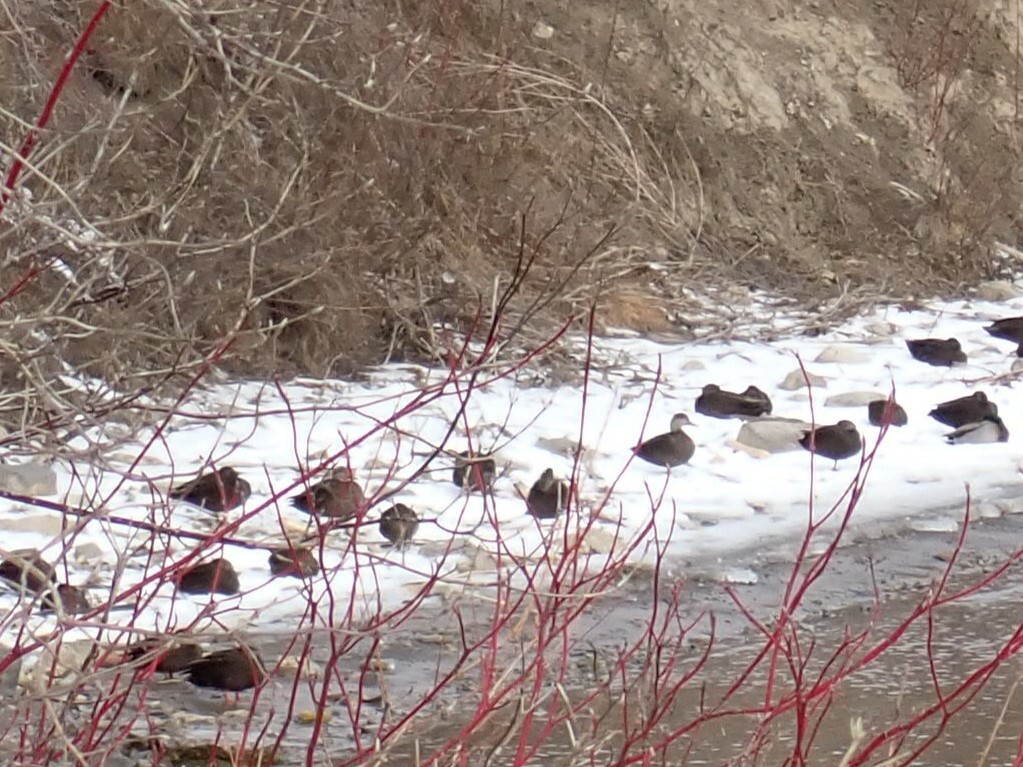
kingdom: Animalia
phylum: Chordata
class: Aves
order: Anseriformes
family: Anatidae
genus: Anas
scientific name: Anas rubripes
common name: American black duck
